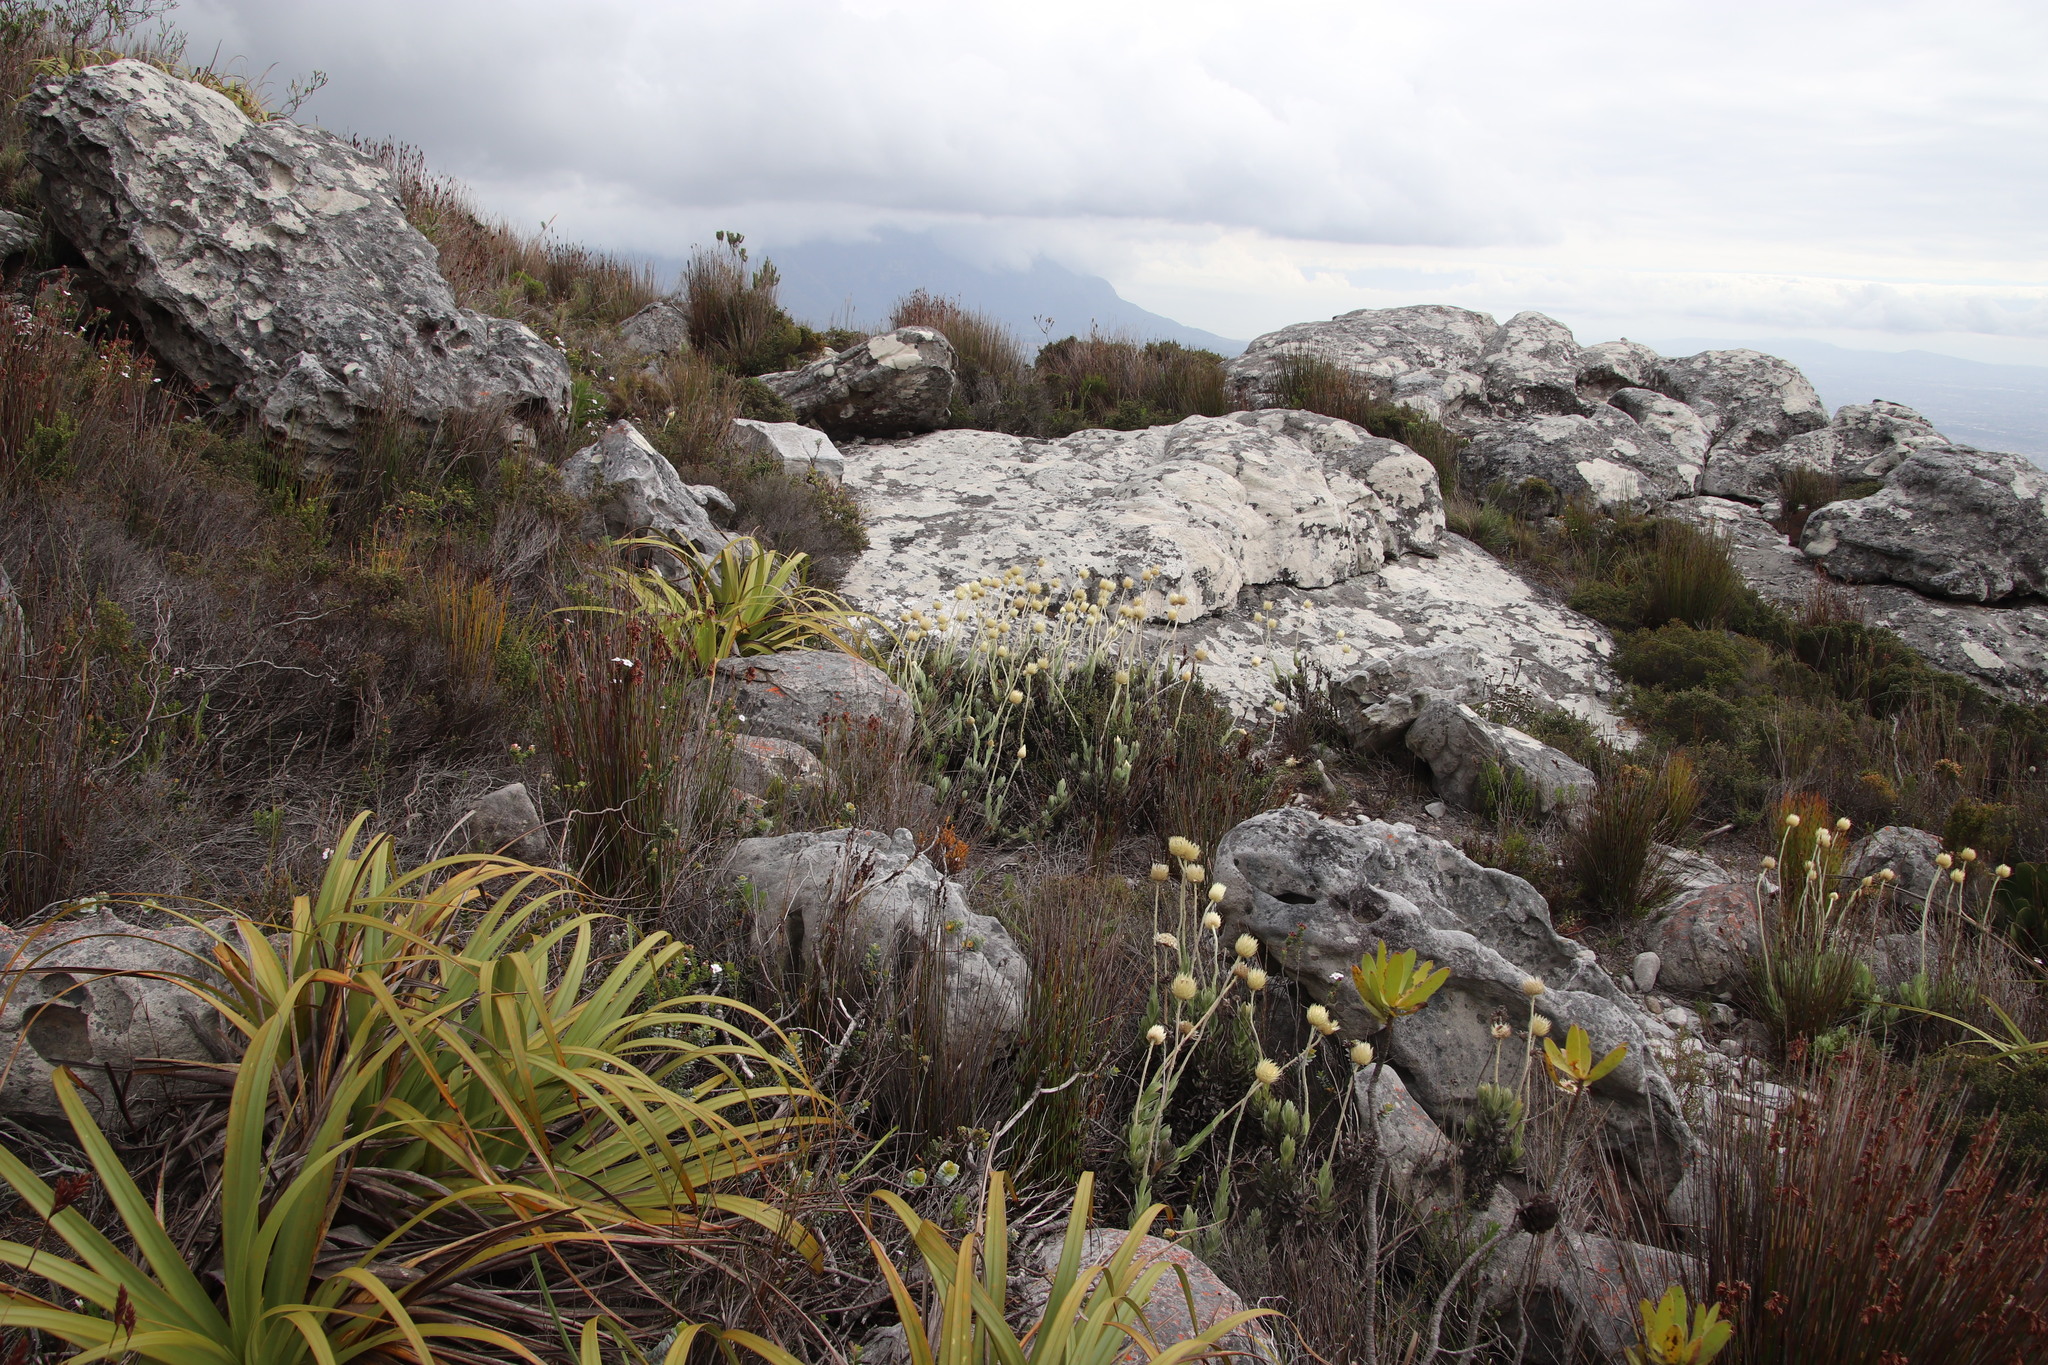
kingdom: Plantae
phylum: Tracheophyta
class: Magnoliopsida
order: Asterales
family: Asteraceae
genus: Syncarpha
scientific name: Syncarpha speciosissima
